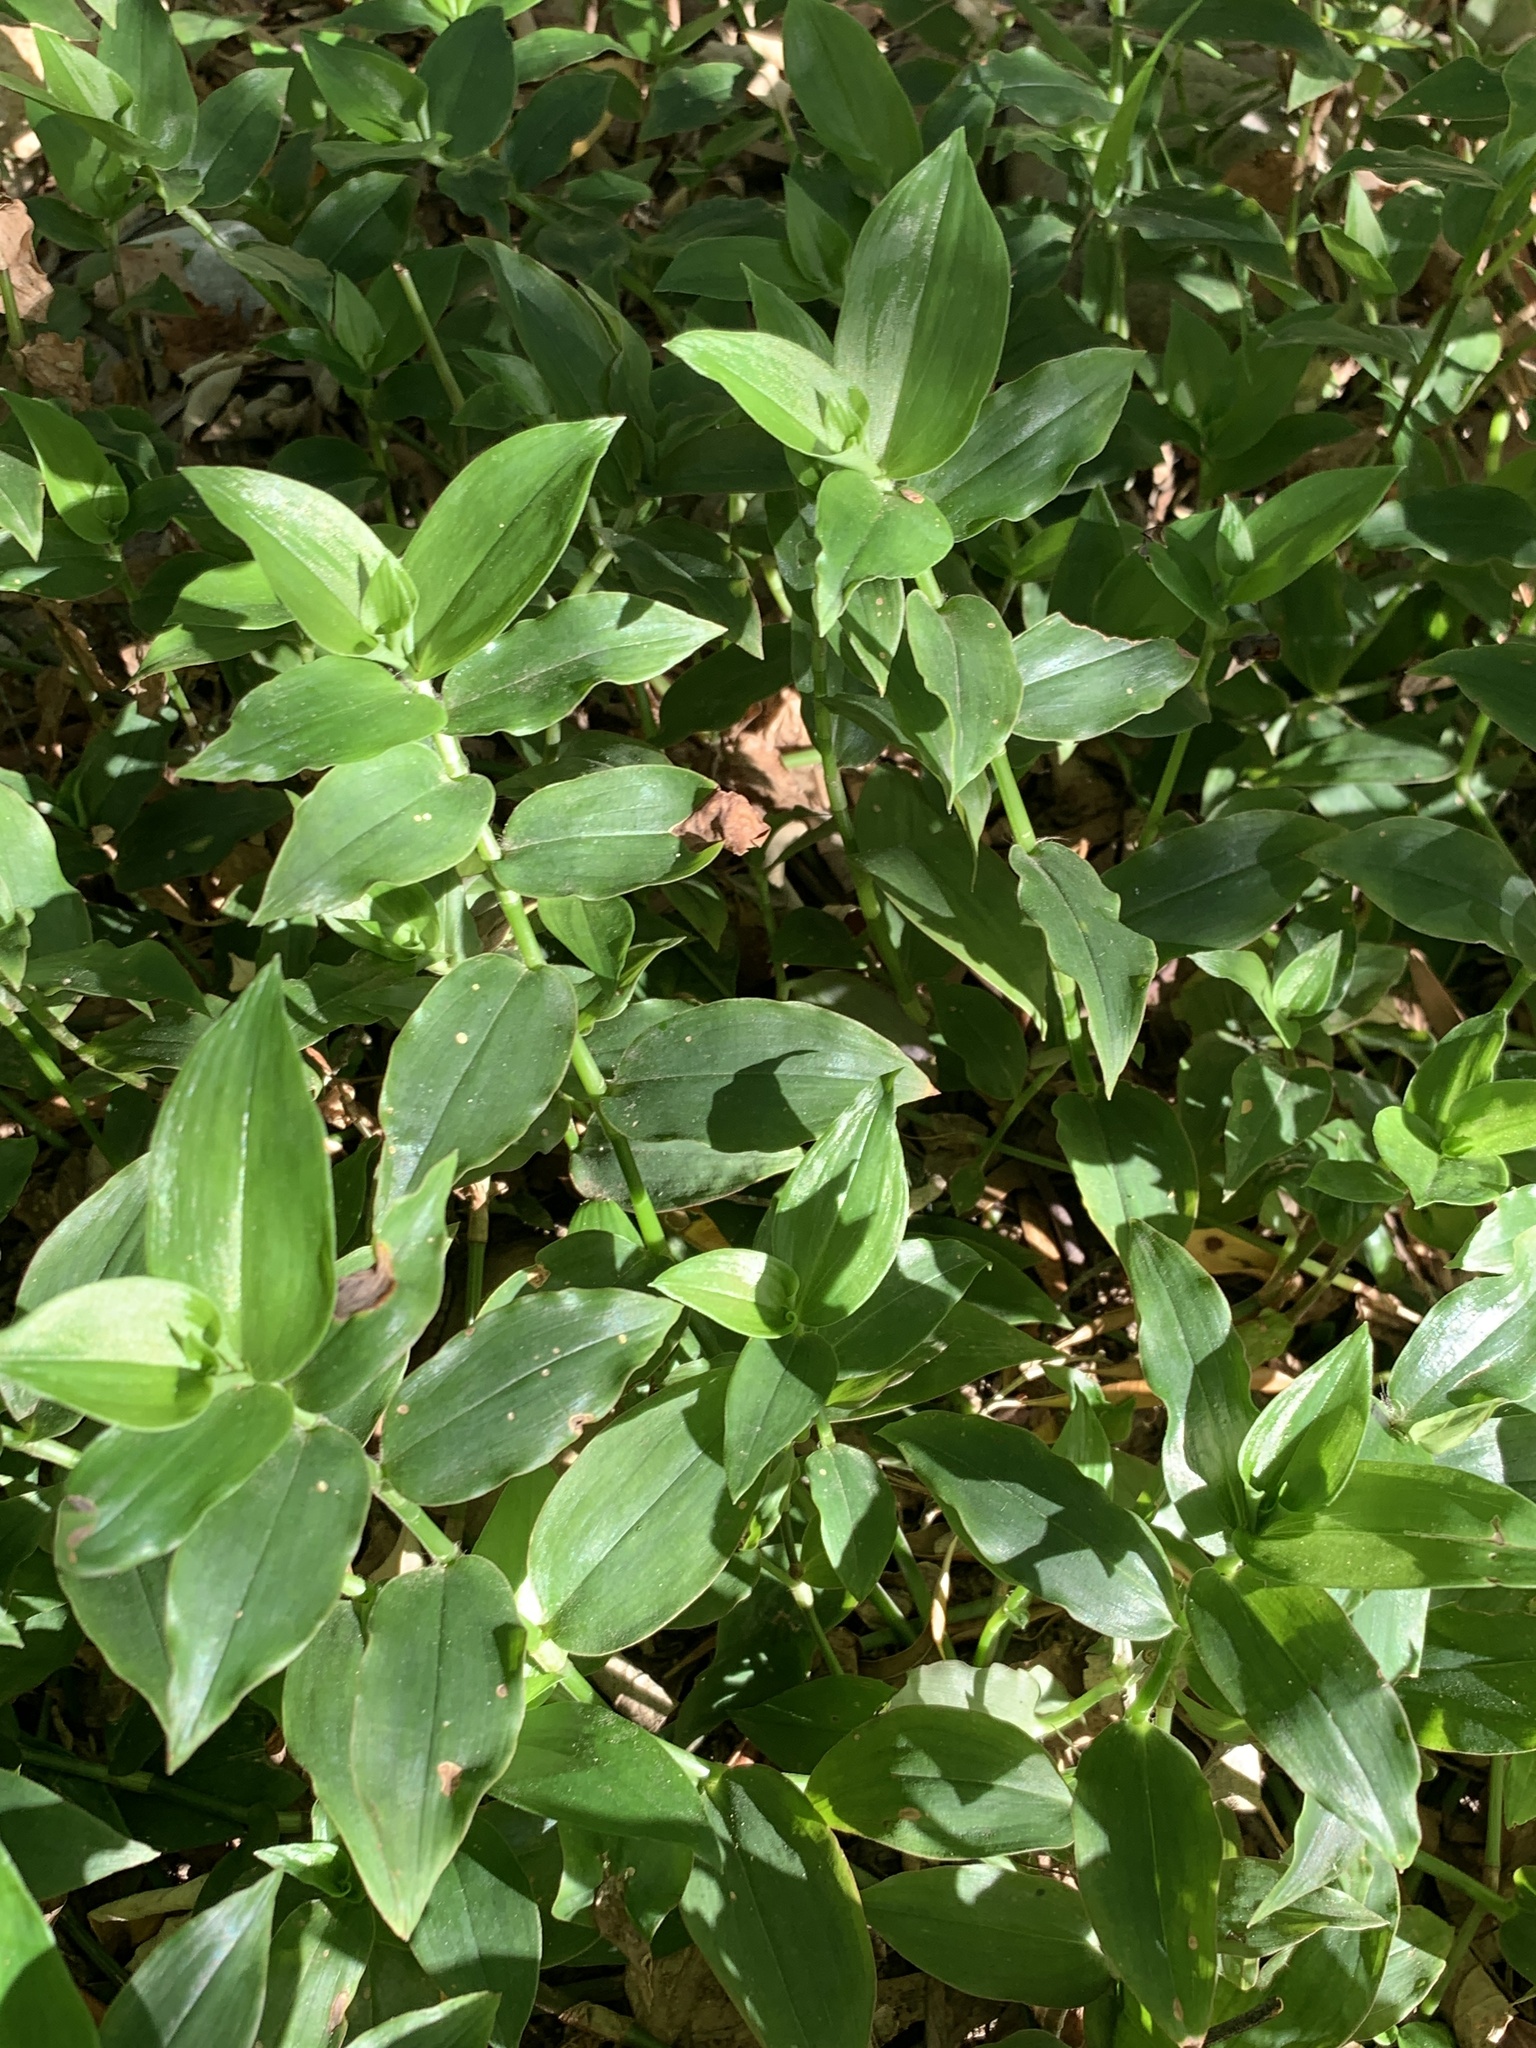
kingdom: Plantae
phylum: Tracheophyta
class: Liliopsida
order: Commelinales
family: Commelinaceae
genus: Tradescantia
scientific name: Tradescantia fluminensis
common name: Wandering-jew
